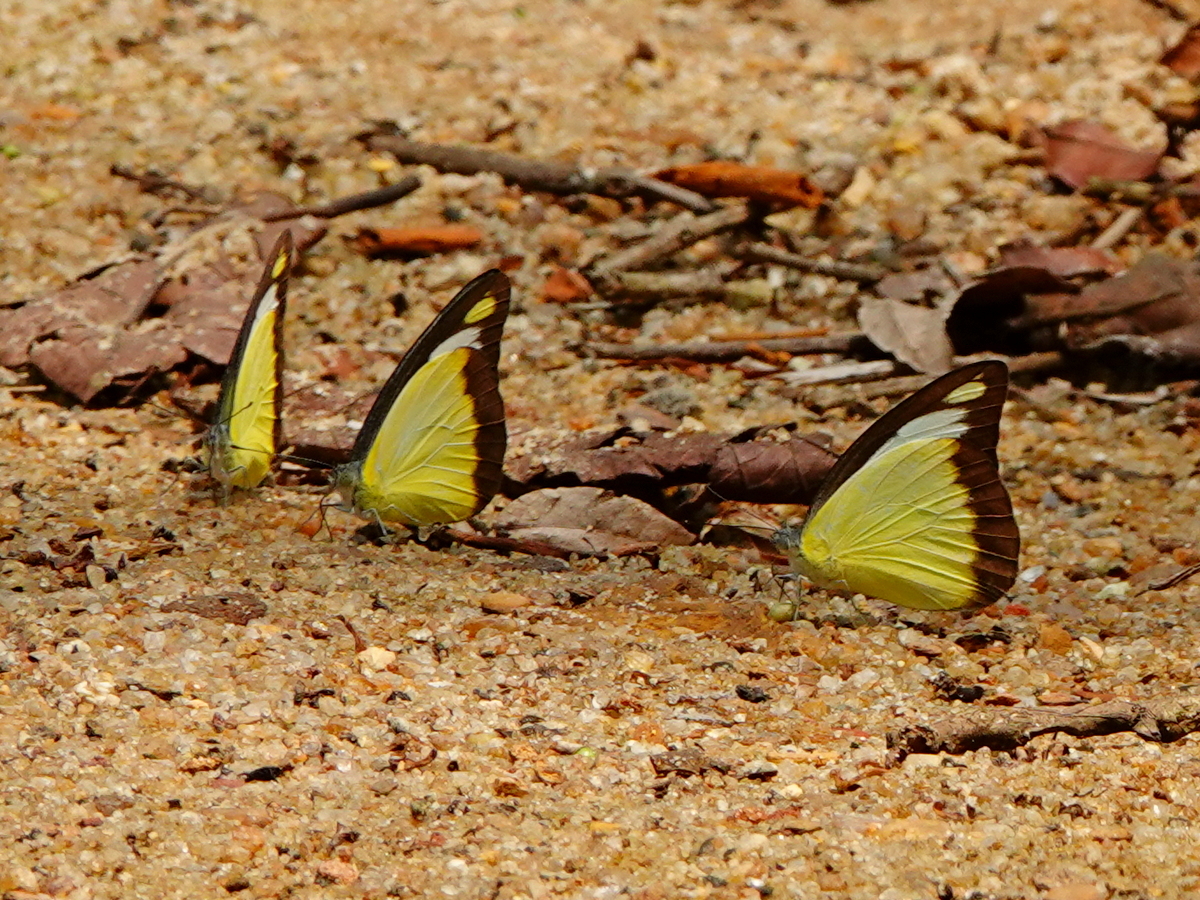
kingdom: Animalia
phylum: Arthropoda
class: Insecta
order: Lepidoptera
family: Pieridae
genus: Appias
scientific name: Appias lyncida
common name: Chocolate albatross
